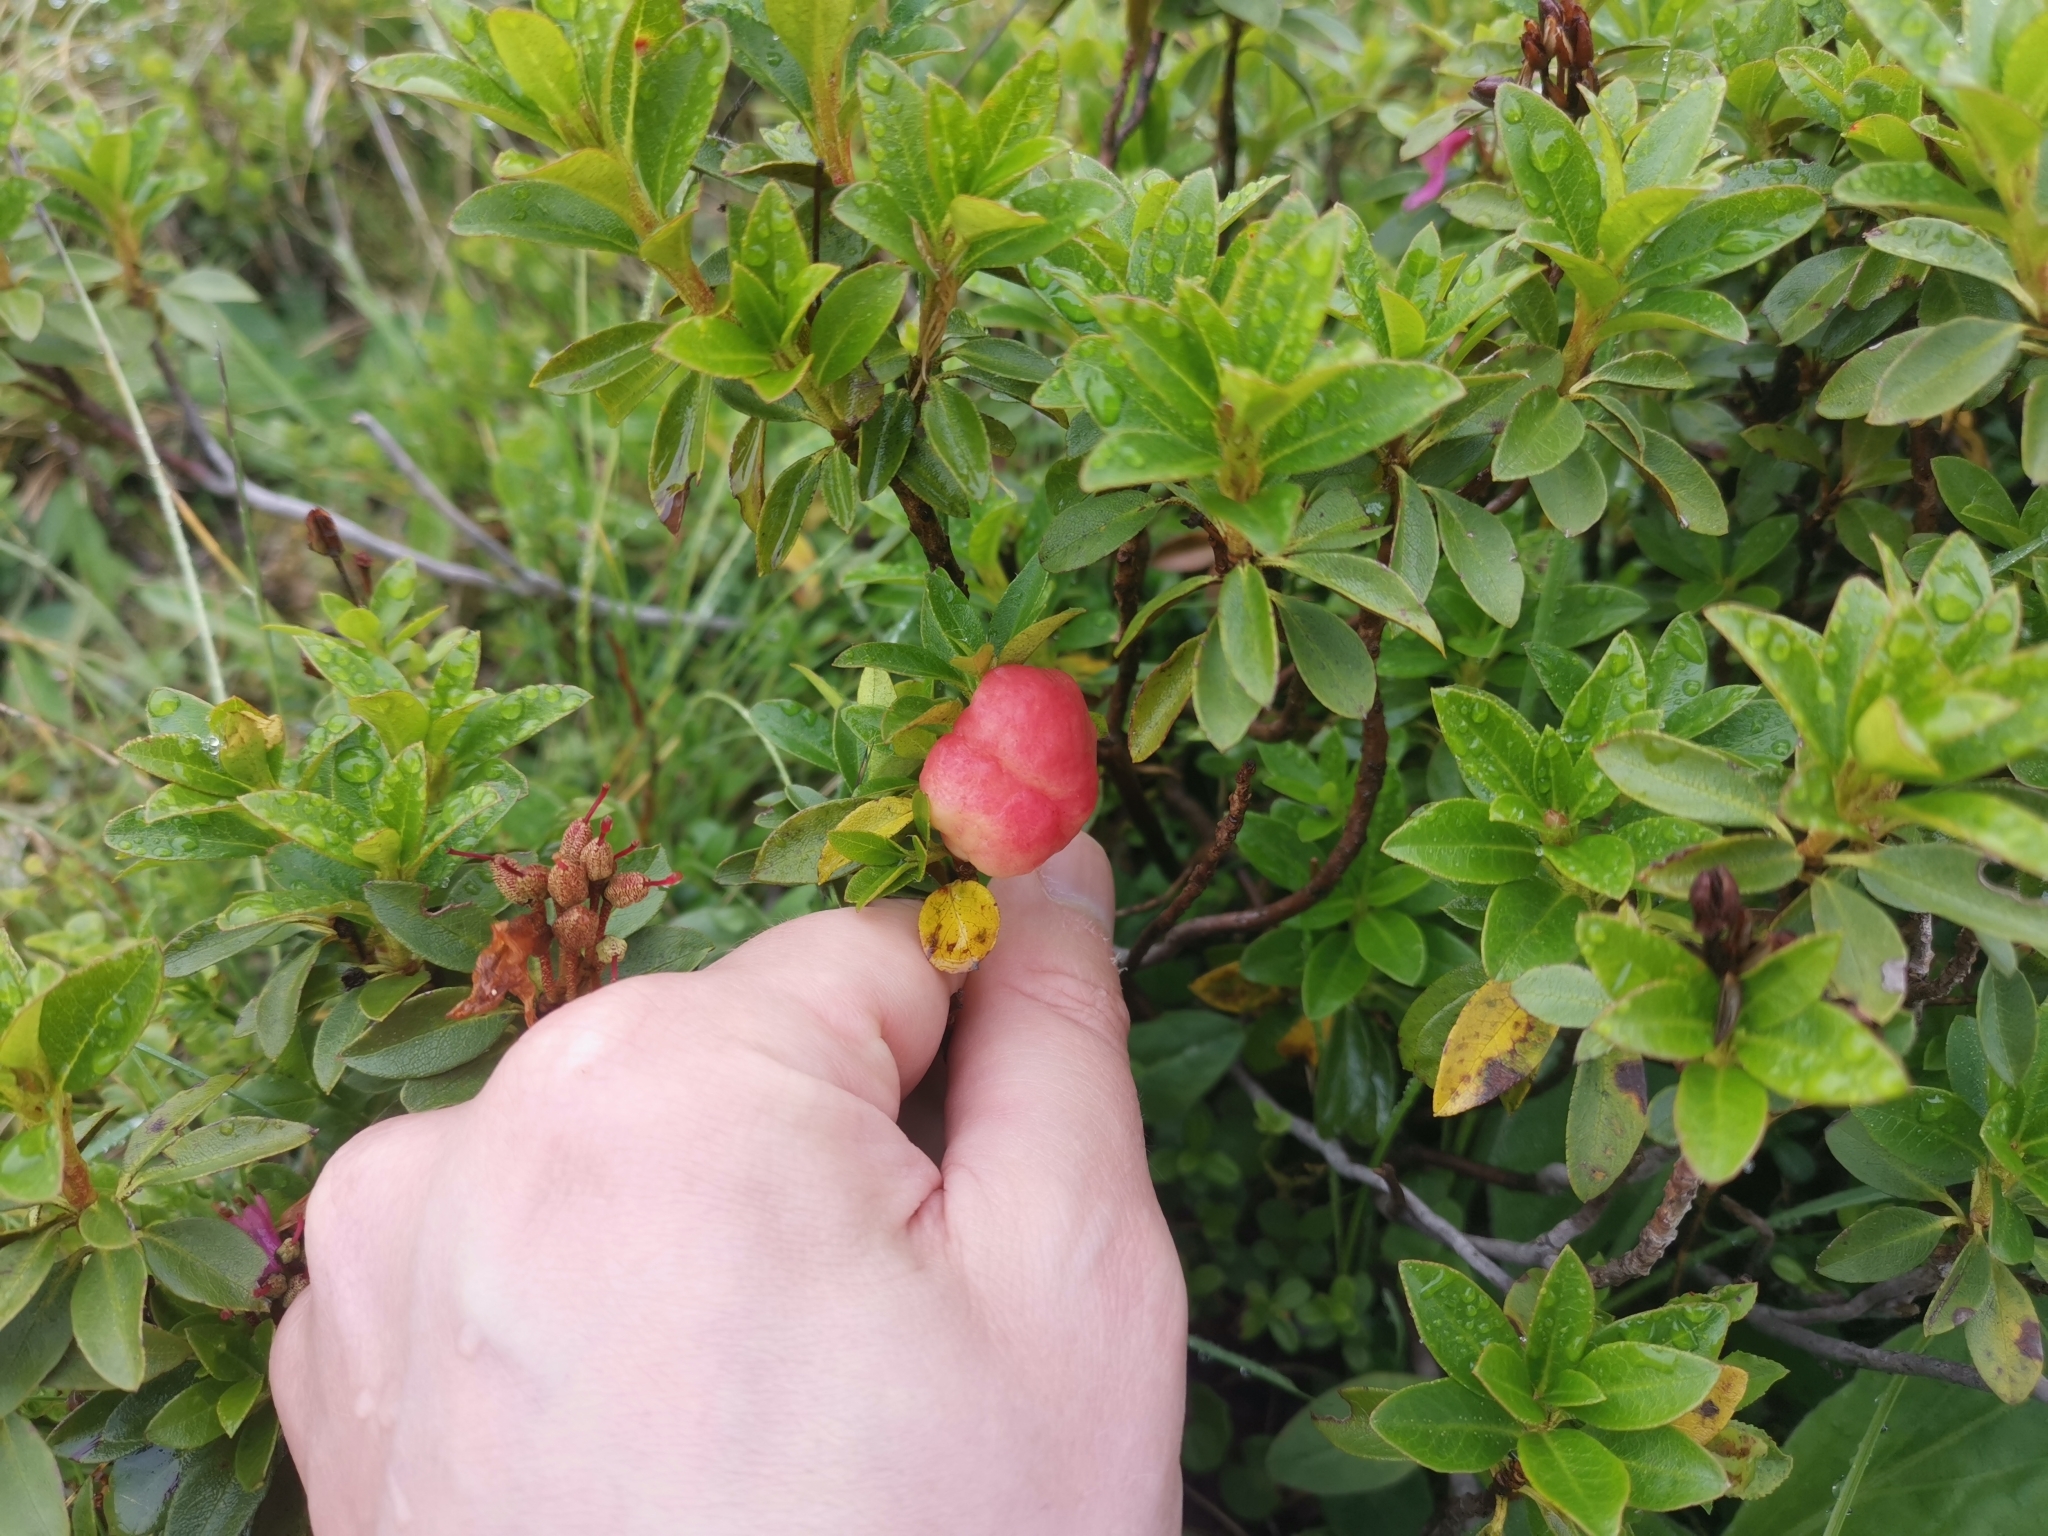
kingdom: Plantae
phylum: Tracheophyta
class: Magnoliopsida
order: Ericales
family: Ericaceae
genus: Rhododendron
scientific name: Rhododendron ferrugineum
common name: Alpenrose
